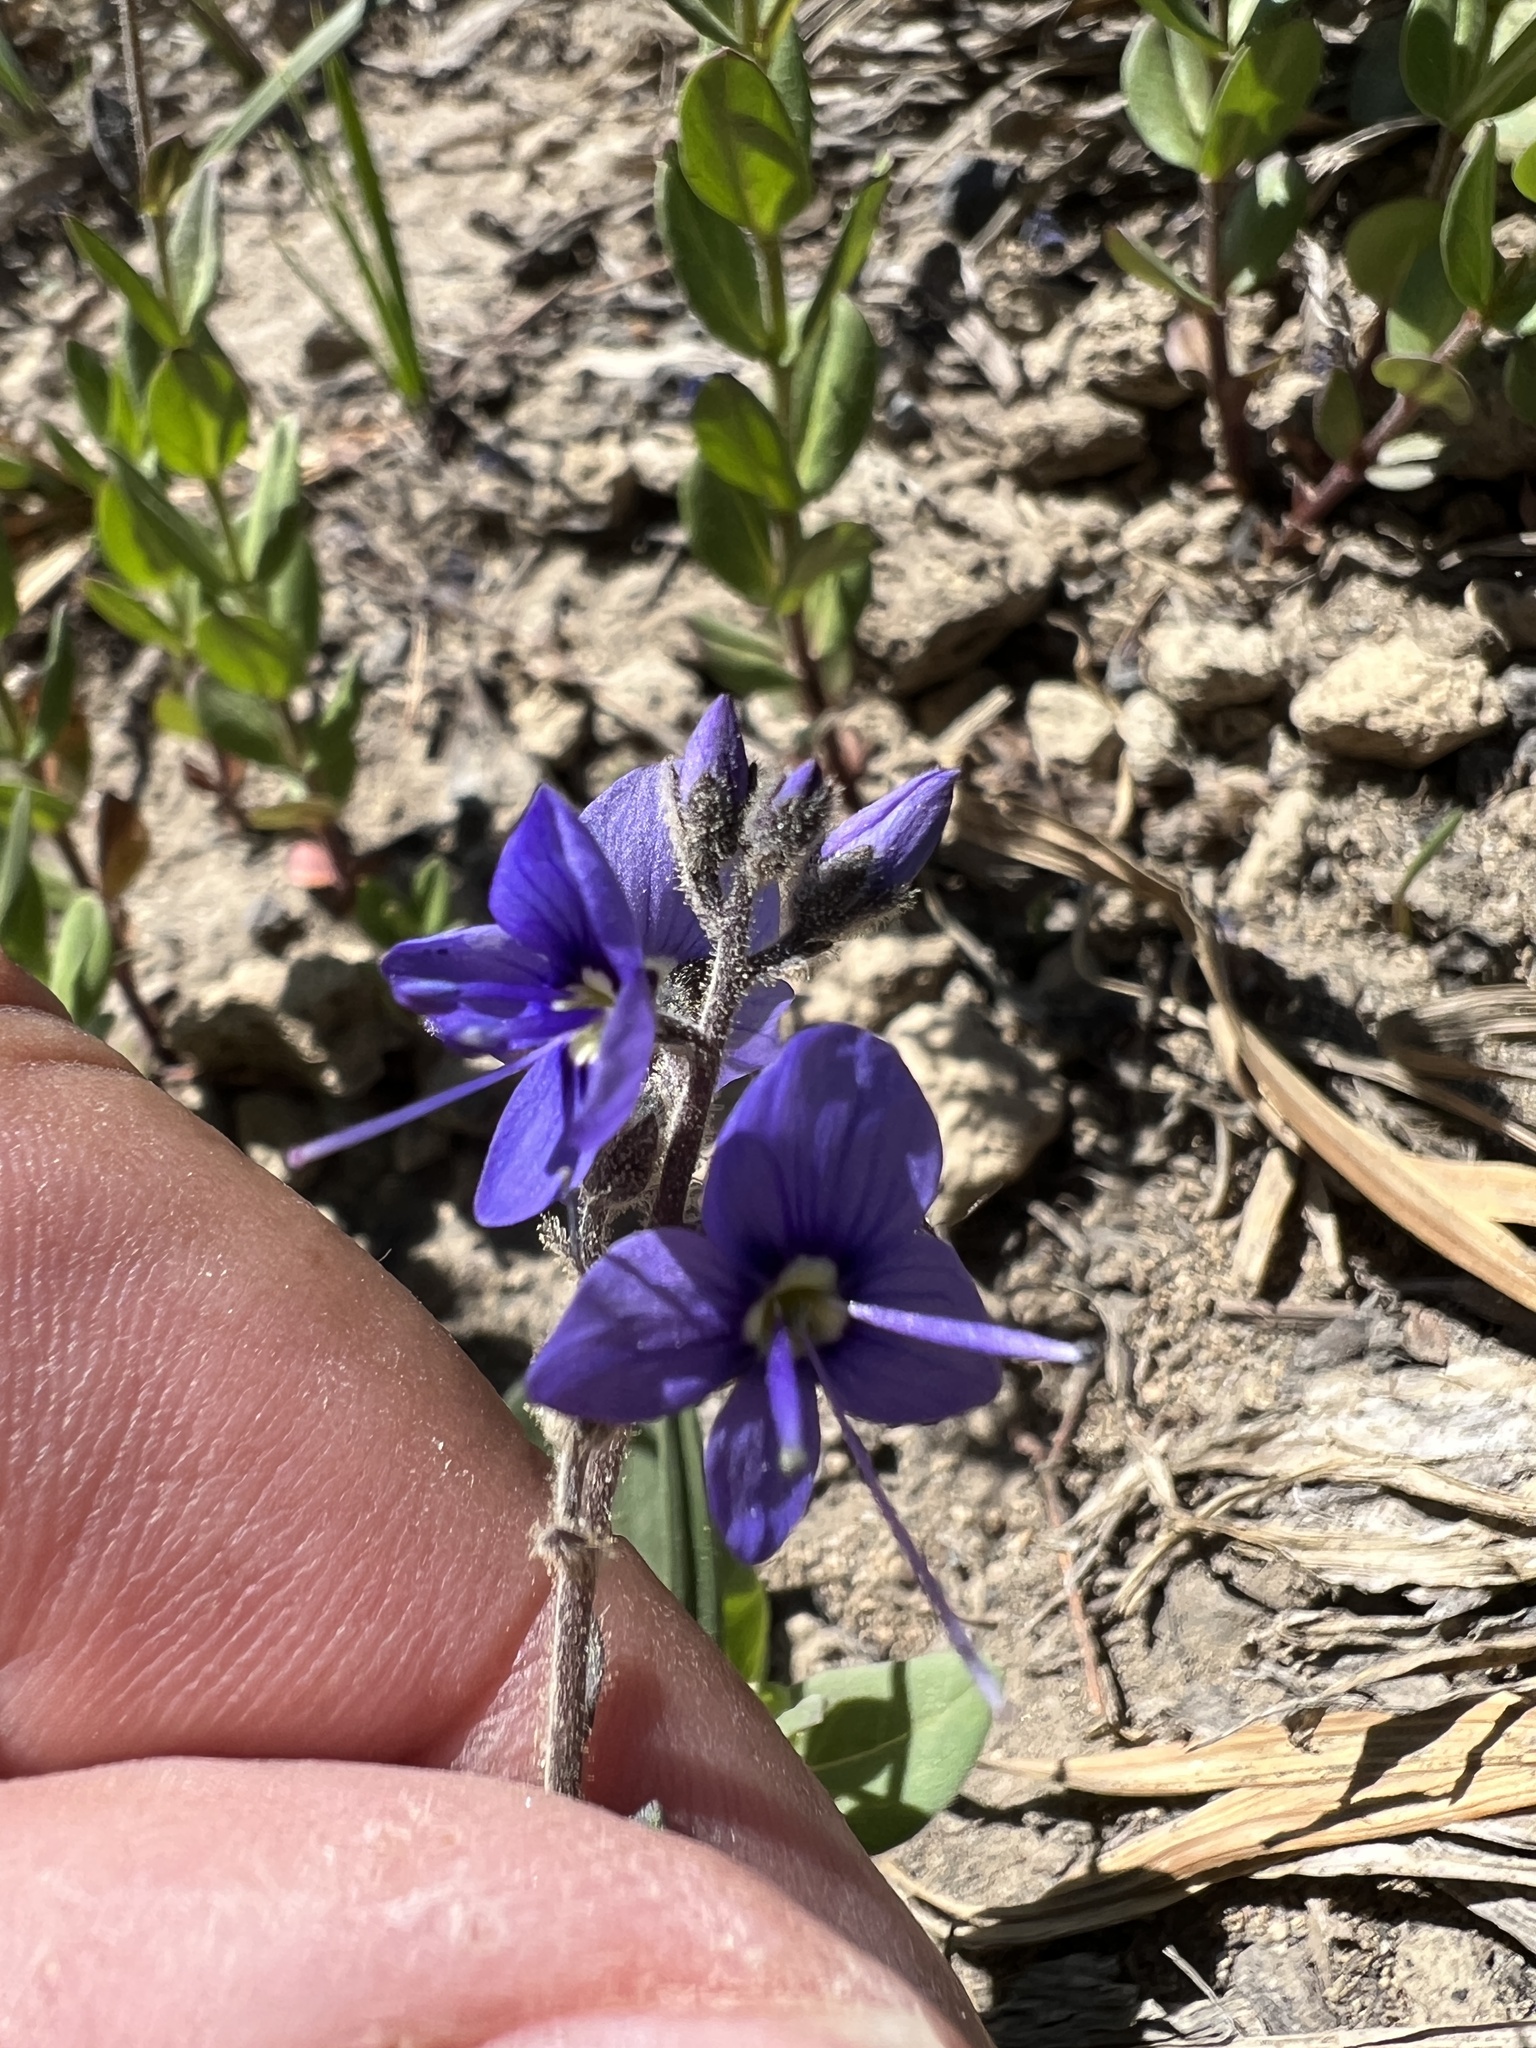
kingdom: Plantae
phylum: Tracheophyta
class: Magnoliopsida
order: Lamiales
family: Plantaginaceae
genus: Veronica
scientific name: Veronica cusickii
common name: Cusick's speedwell
